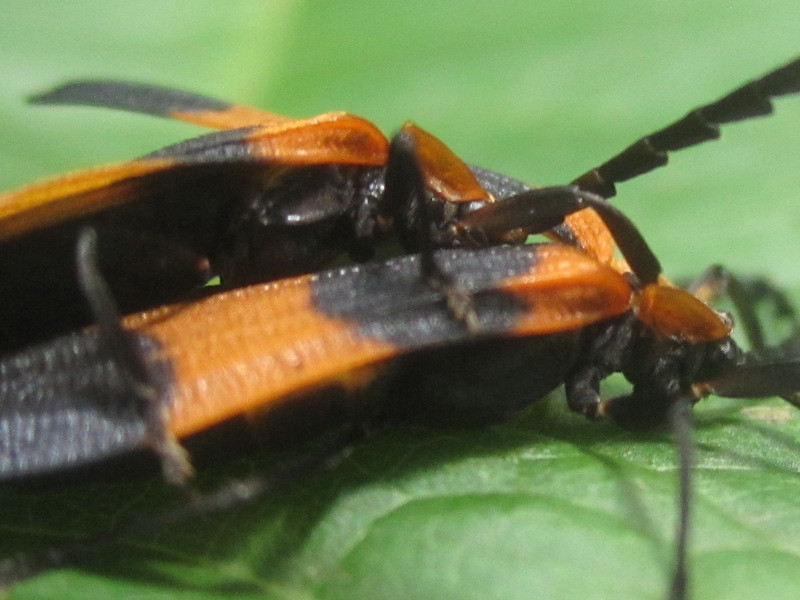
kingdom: Animalia
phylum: Arthropoda
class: Insecta
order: Coleoptera
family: Lycidae
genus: Calopteron
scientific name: Calopteron reticulatum
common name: Banded net-winged beetle
